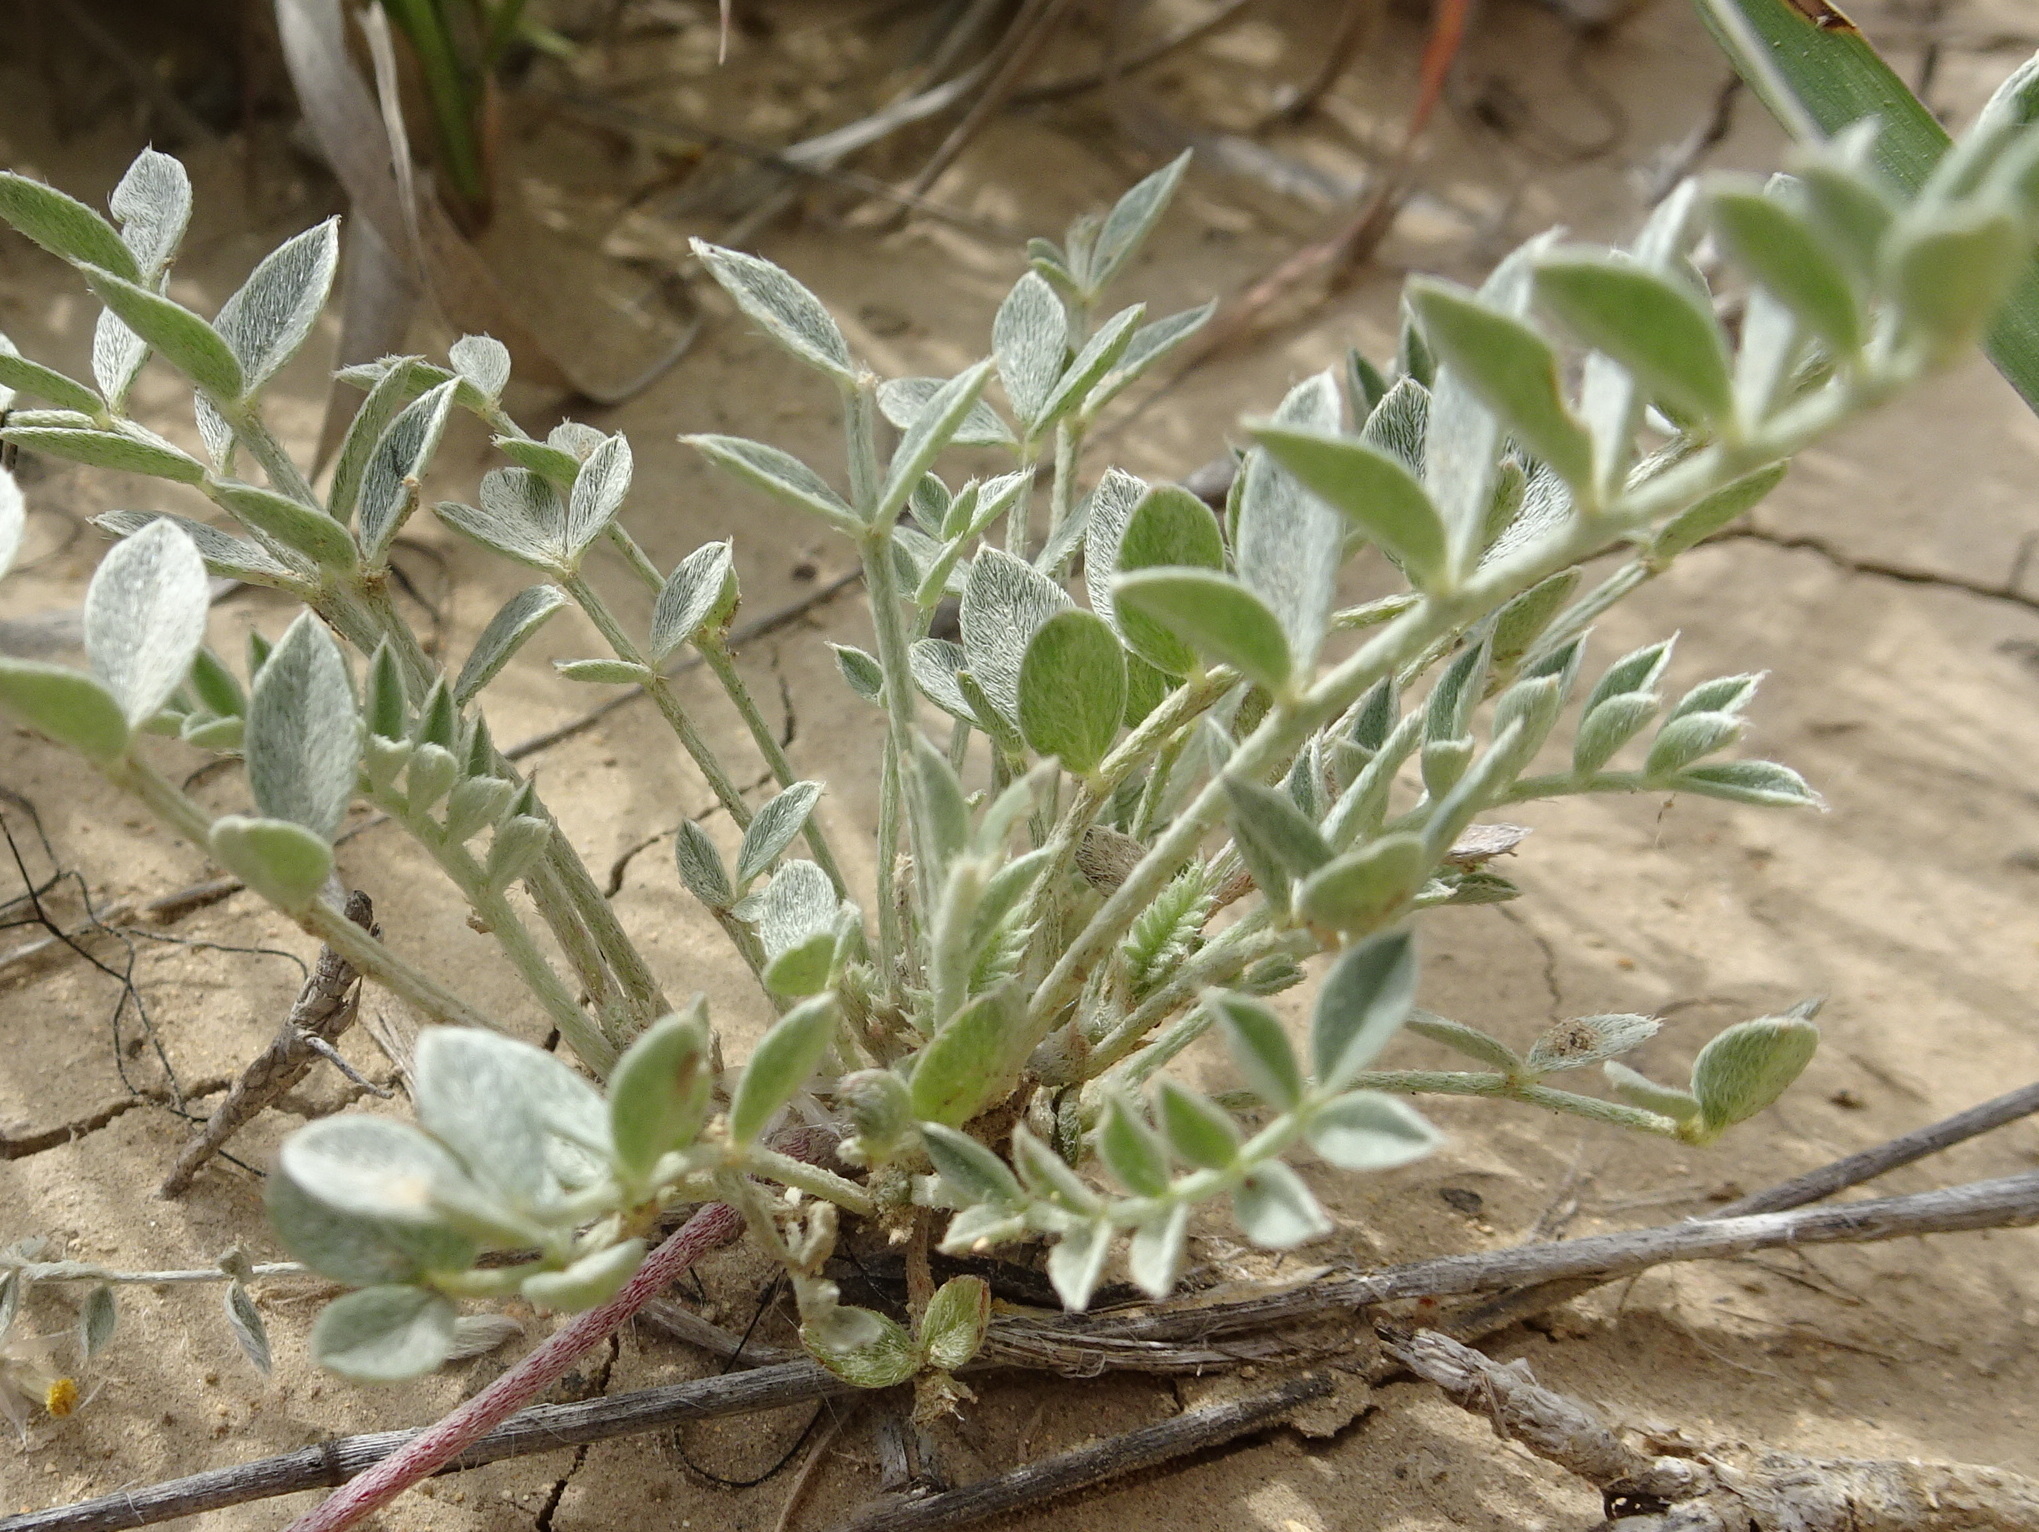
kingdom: Plantae
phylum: Tracheophyta
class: Magnoliopsida
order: Fabales
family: Fabaceae
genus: Astragalus
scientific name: Astragalus missouriensis
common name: Missouri milk-vetch
